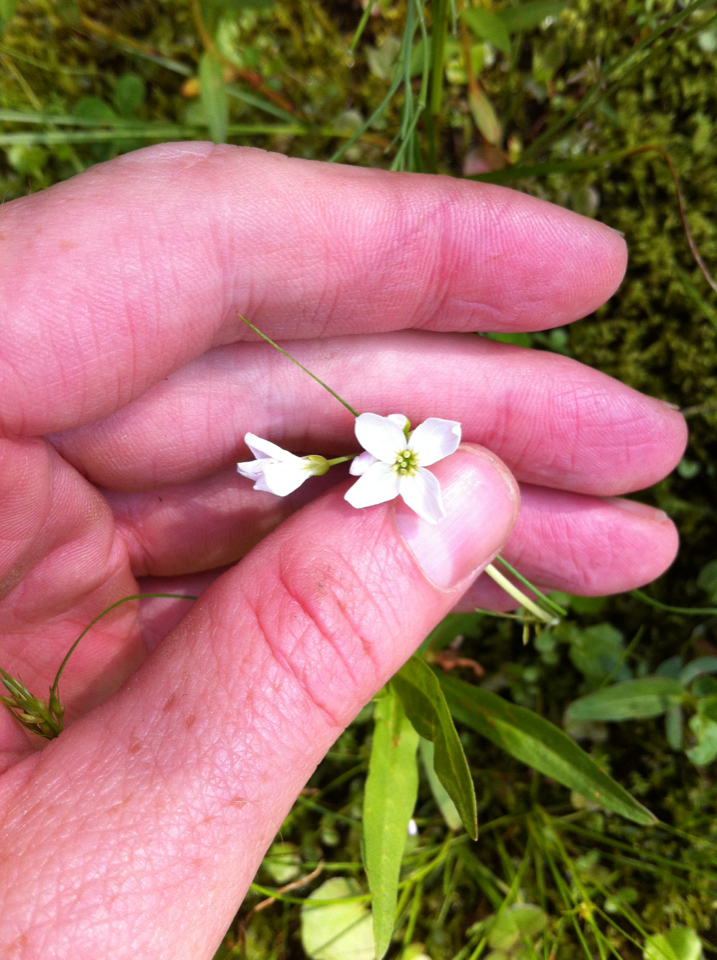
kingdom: Plantae
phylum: Tracheophyta
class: Magnoliopsida
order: Brassicales
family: Brassicaceae
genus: Cardamine
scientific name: Cardamine nymanii
